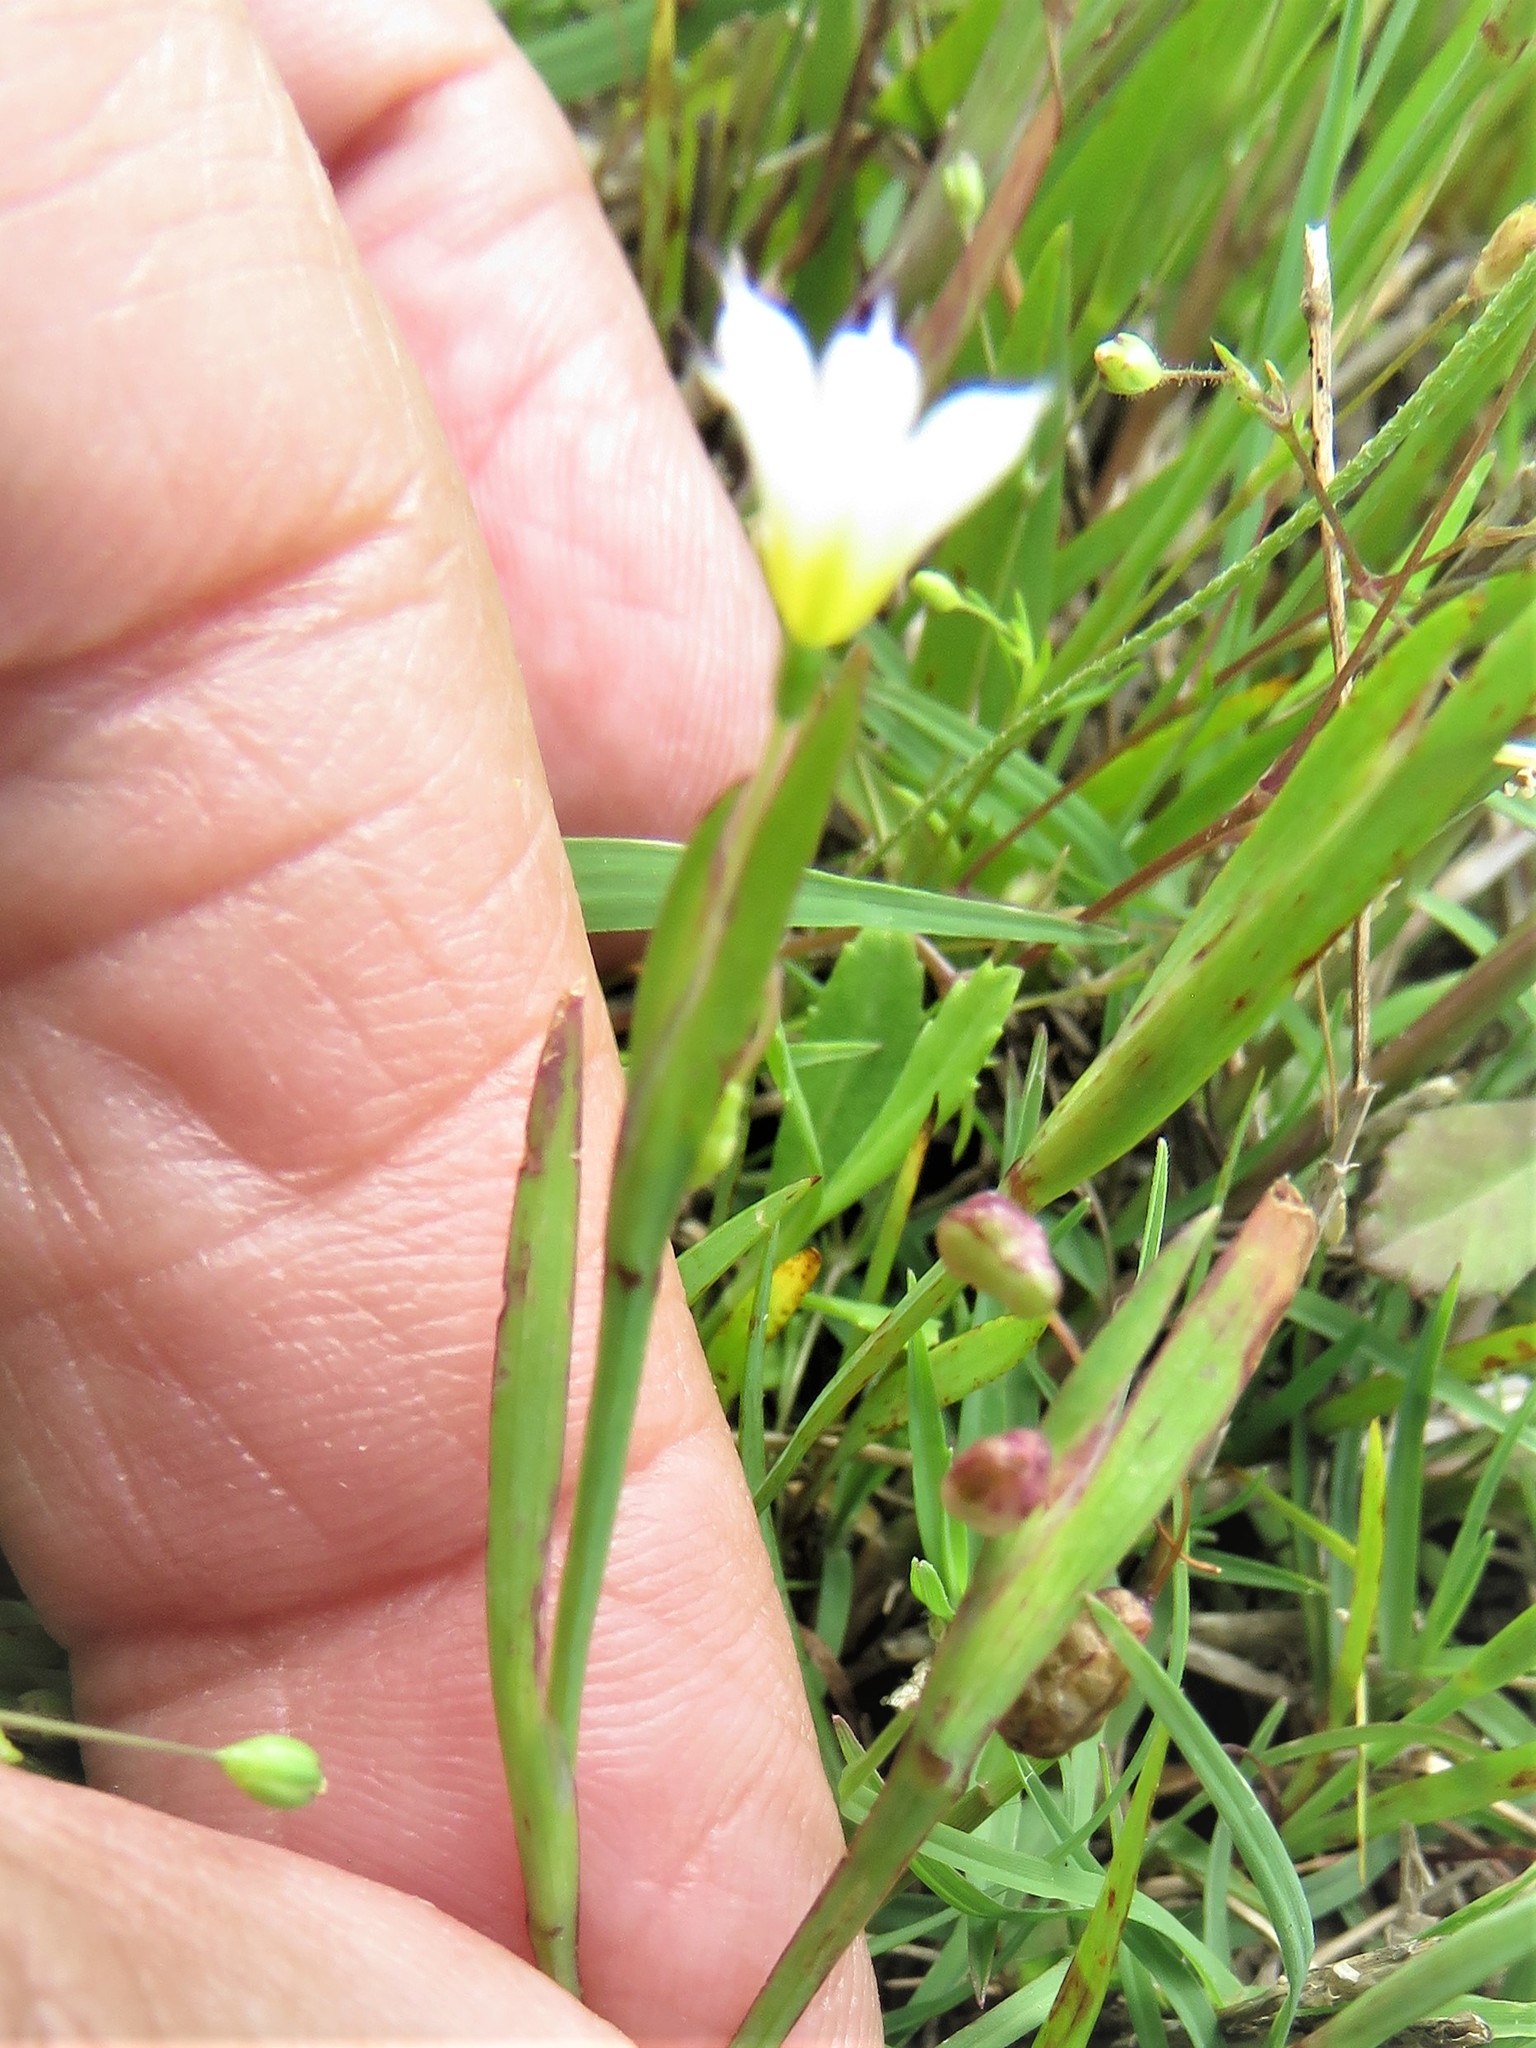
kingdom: Plantae
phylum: Tracheophyta
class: Liliopsida
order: Asparagales
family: Iridaceae
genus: Sisyrinchium
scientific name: Sisyrinchium minus
